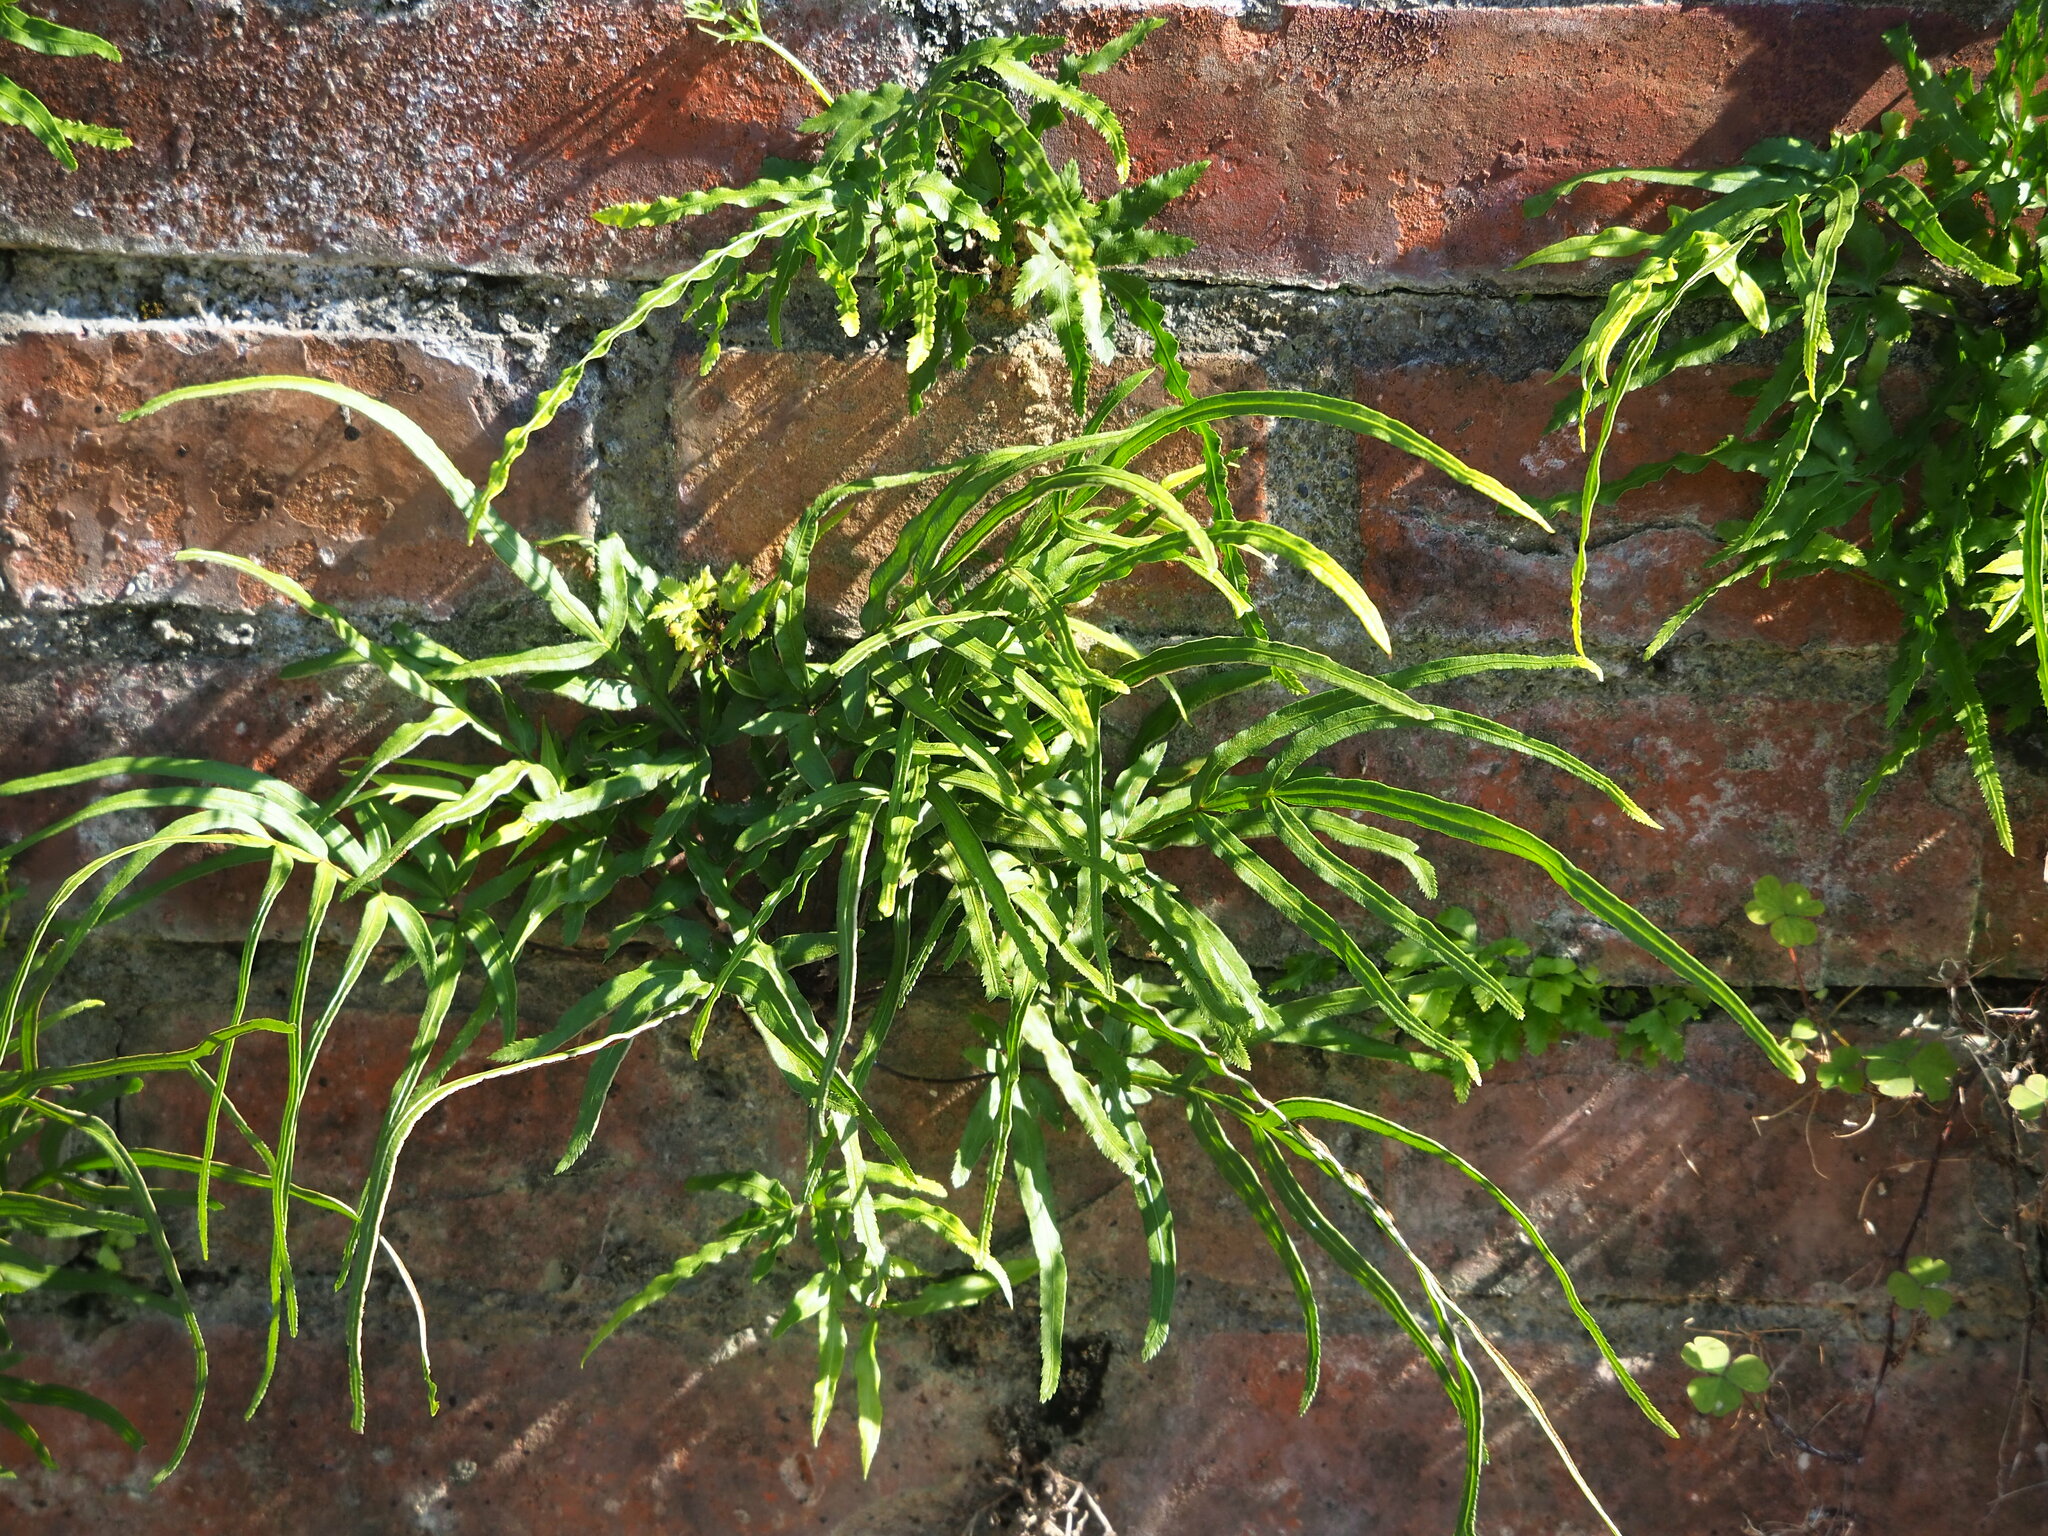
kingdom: Plantae
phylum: Tracheophyta
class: Polypodiopsida
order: Polypodiales
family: Pteridaceae
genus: Pteris
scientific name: Pteris multifida
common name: Spider brake
